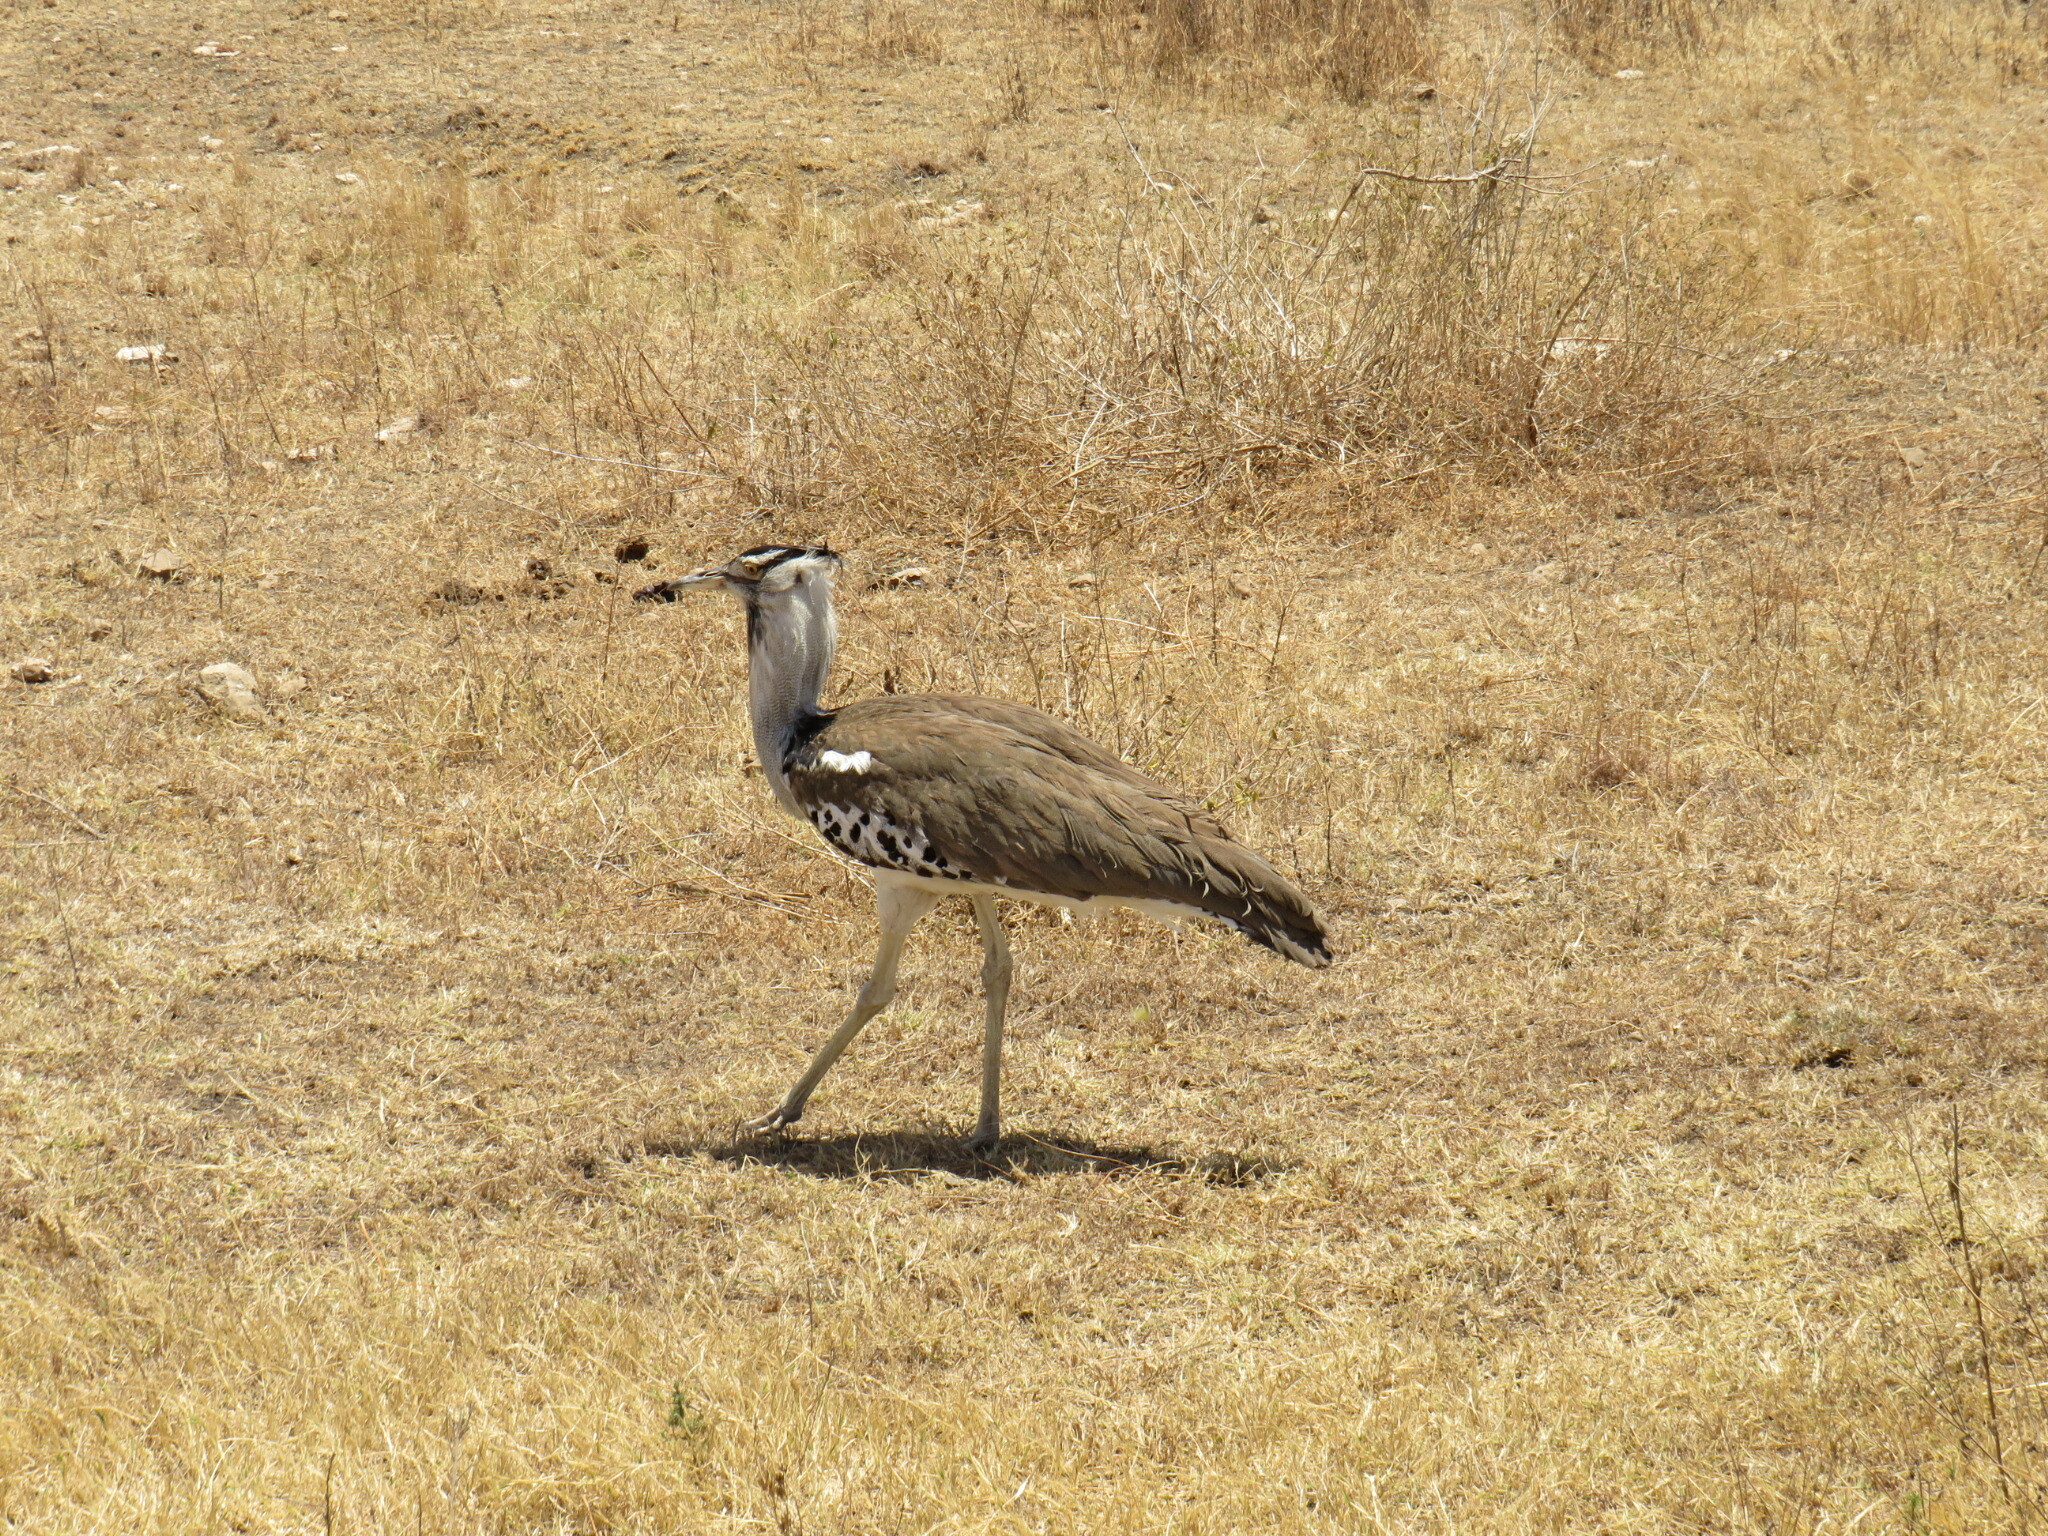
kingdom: Animalia
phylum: Chordata
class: Aves
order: Otidiformes
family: Otididae
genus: Ardeotis
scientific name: Ardeotis kori
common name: Kori bustard
